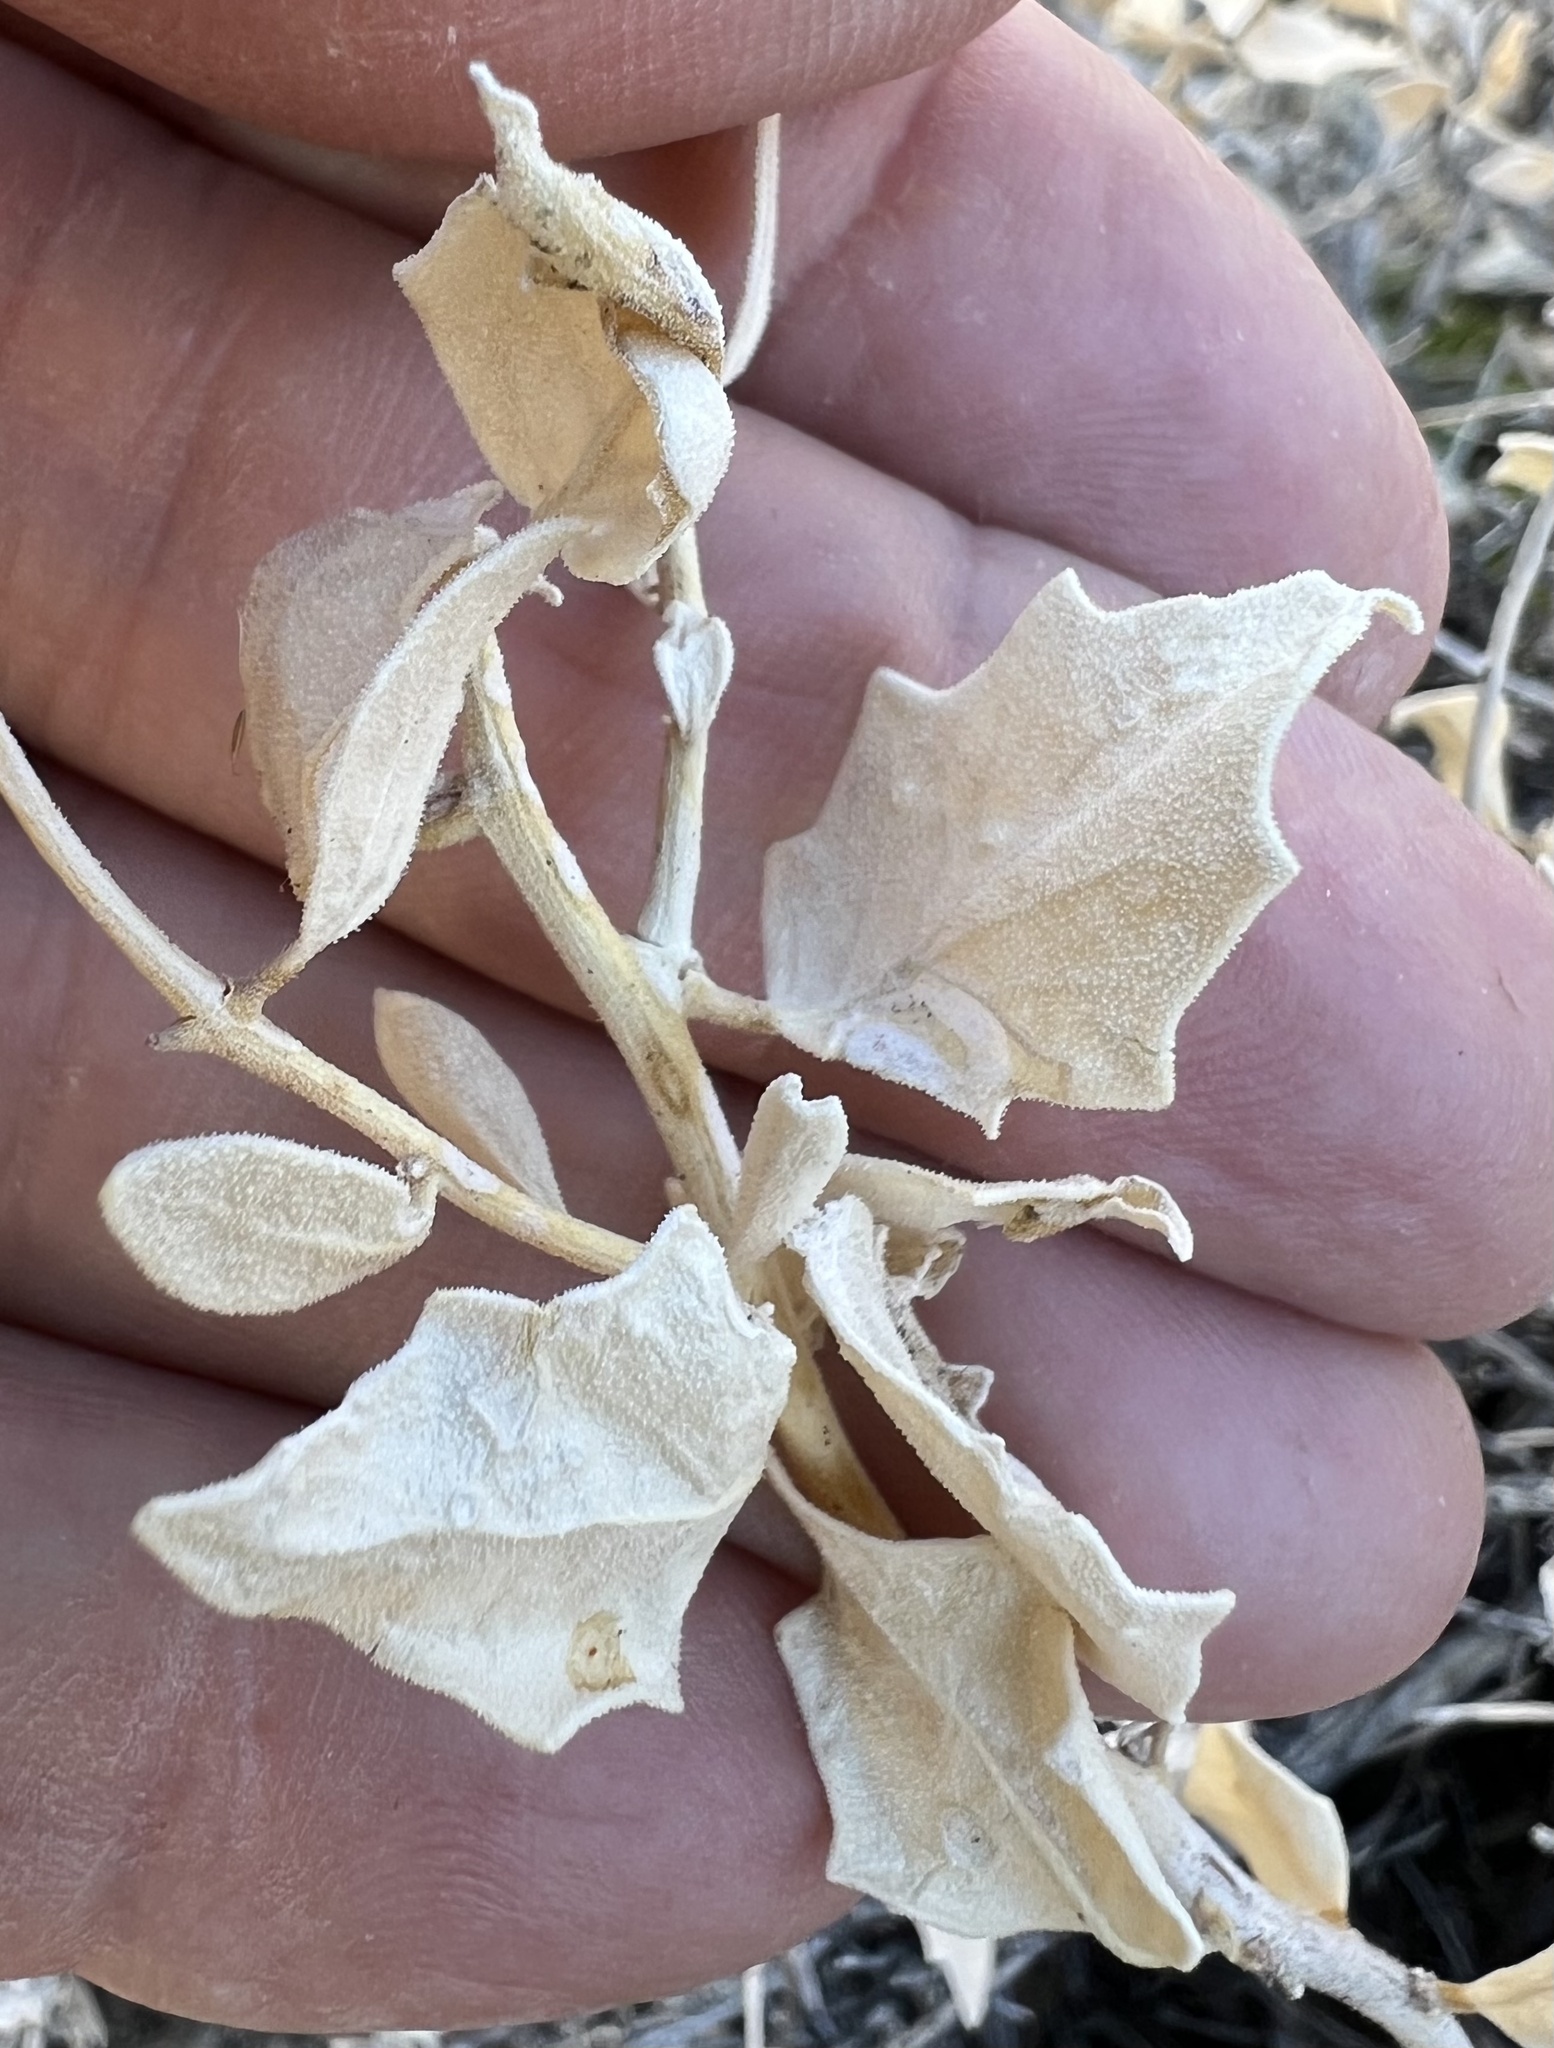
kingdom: Plantae
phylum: Tracheophyta
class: Magnoliopsida
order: Cornales
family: Loasaceae
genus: Petalonyx
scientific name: Petalonyx nitidus
